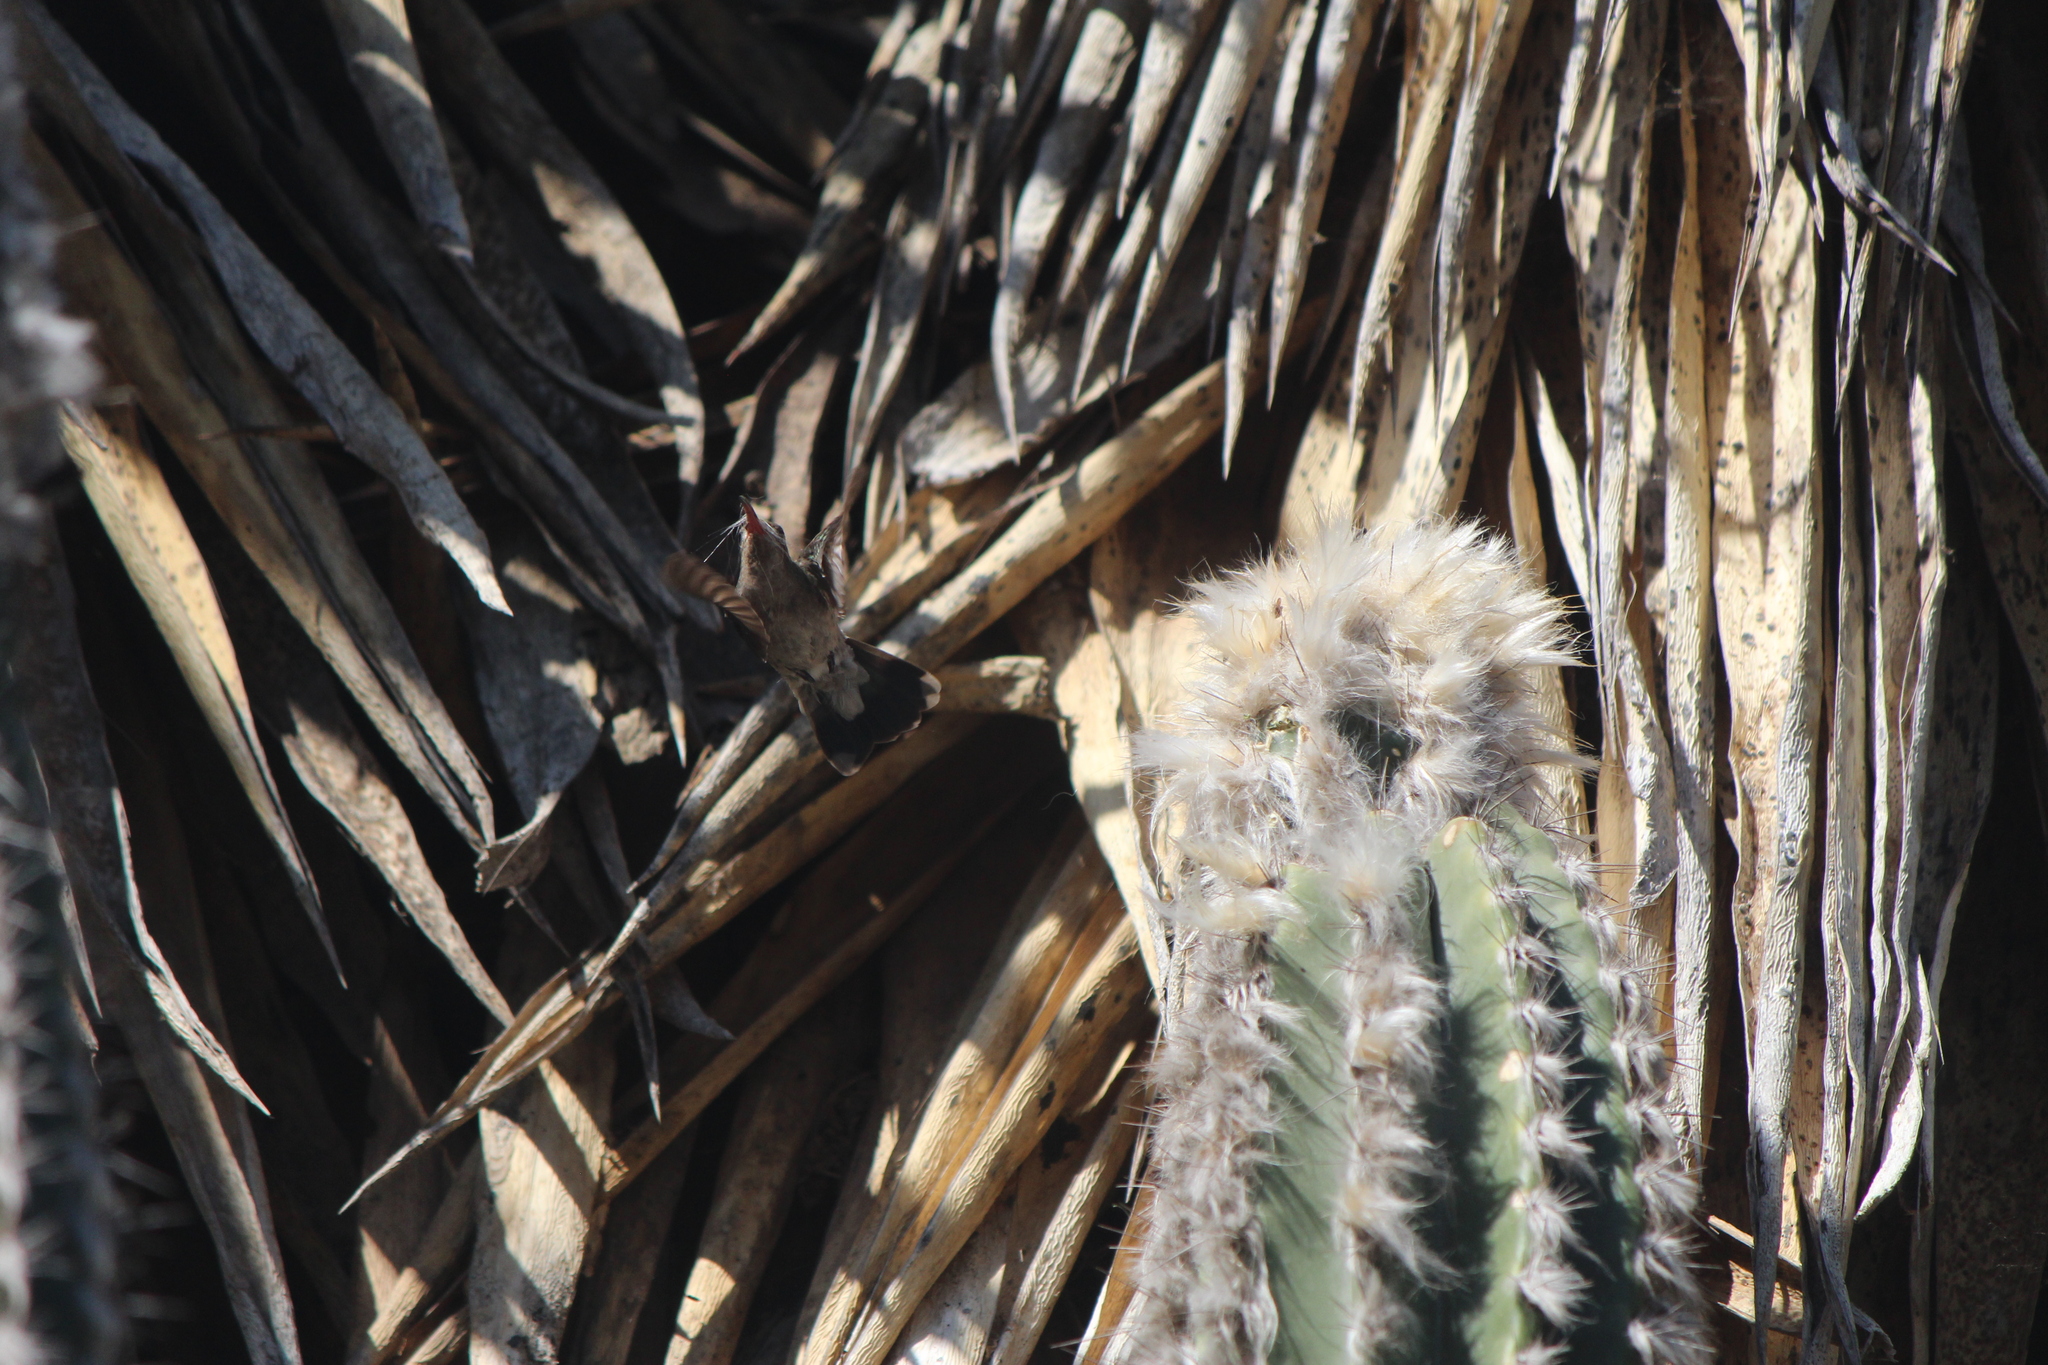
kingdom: Animalia
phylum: Chordata
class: Aves
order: Apodiformes
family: Trochilidae
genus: Cynanthus
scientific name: Cynanthus latirostris
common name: Broad-billed hummingbird
